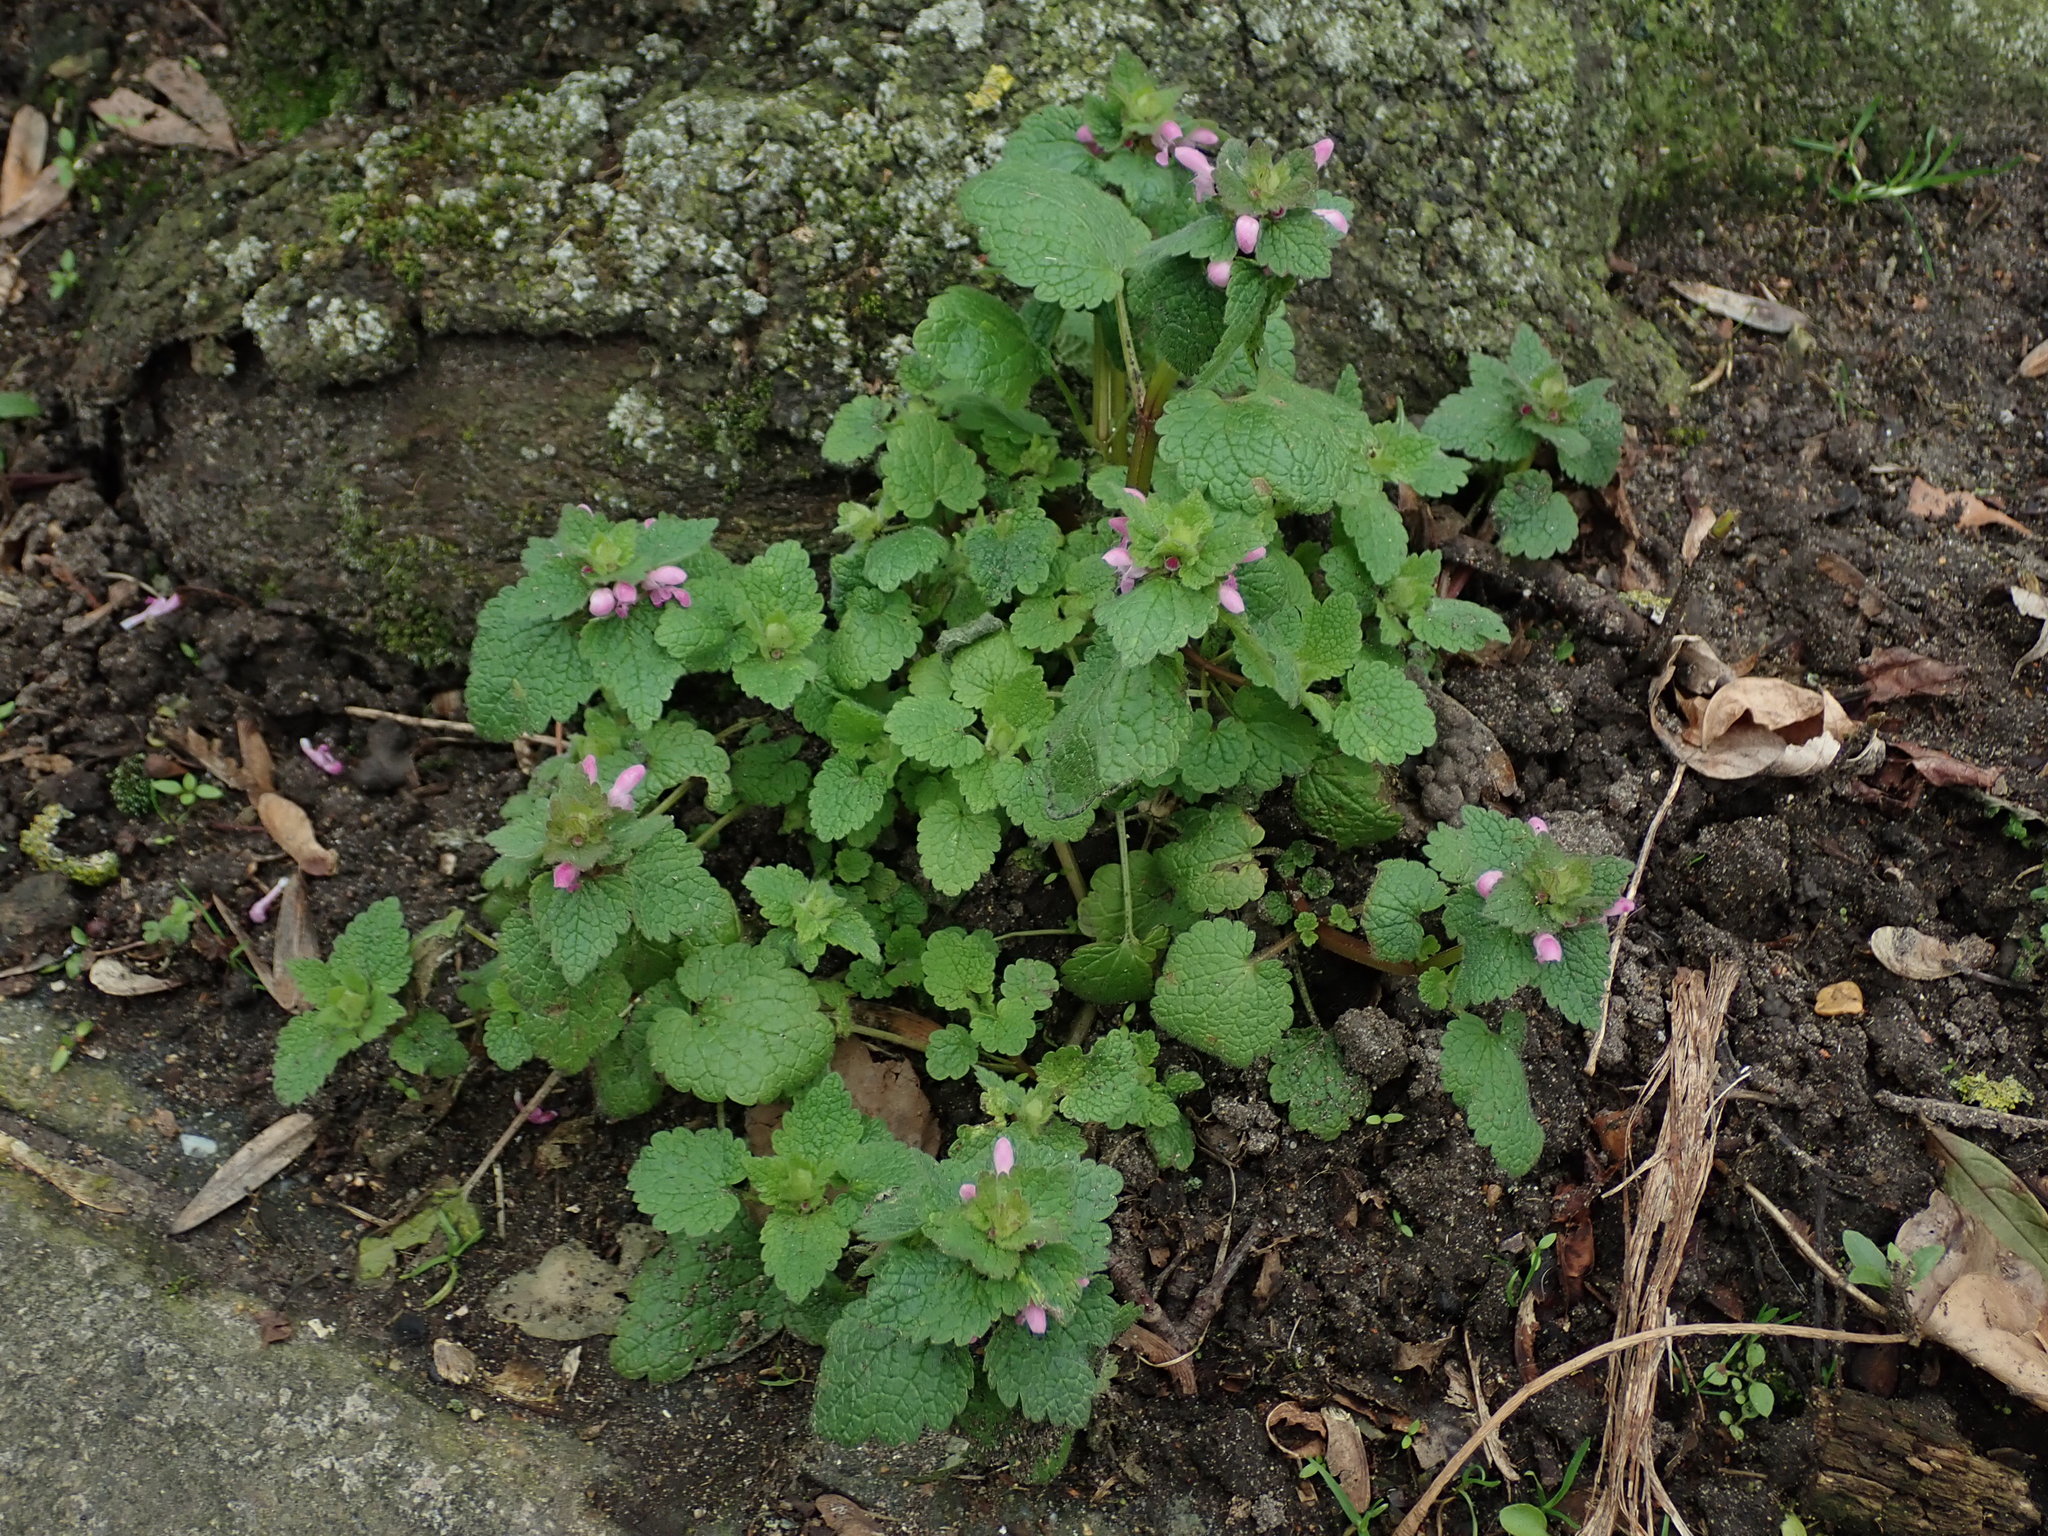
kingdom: Plantae
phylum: Tracheophyta
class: Magnoliopsida
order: Lamiales
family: Lamiaceae
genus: Lamium
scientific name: Lamium purpureum
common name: Red dead-nettle
